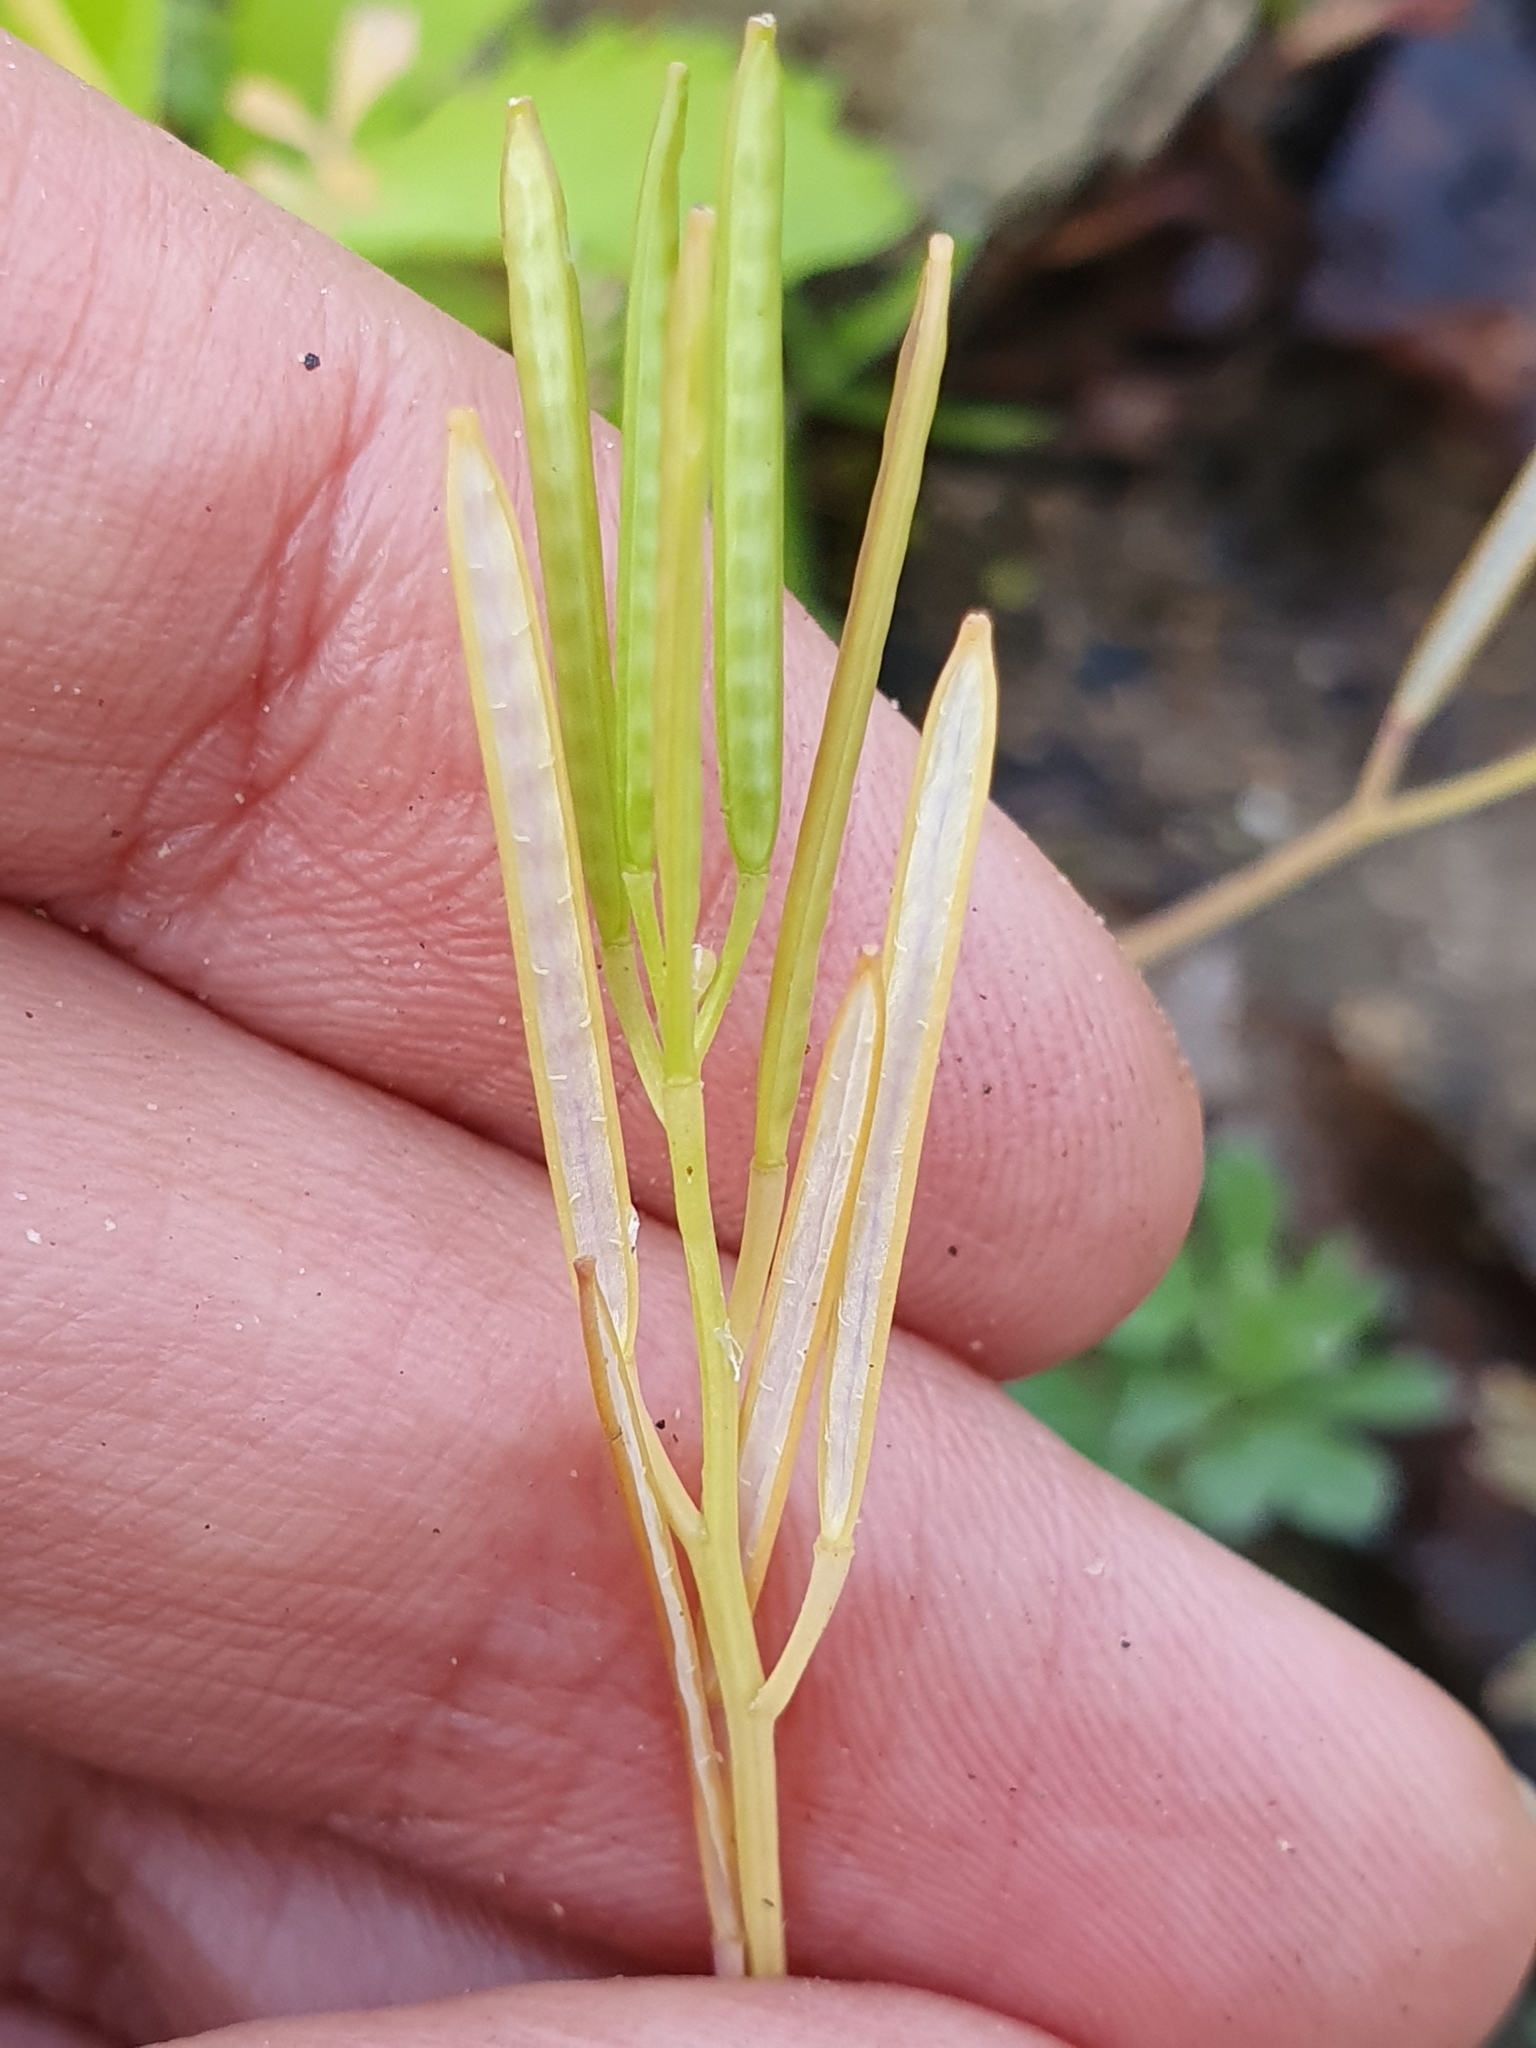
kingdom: Plantae
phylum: Tracheophyta
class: Magnoliopsida
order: Brassicales
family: Brassicaceae
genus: Cardamine
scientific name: Cardamine hirsuta
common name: Hairy bittercress
